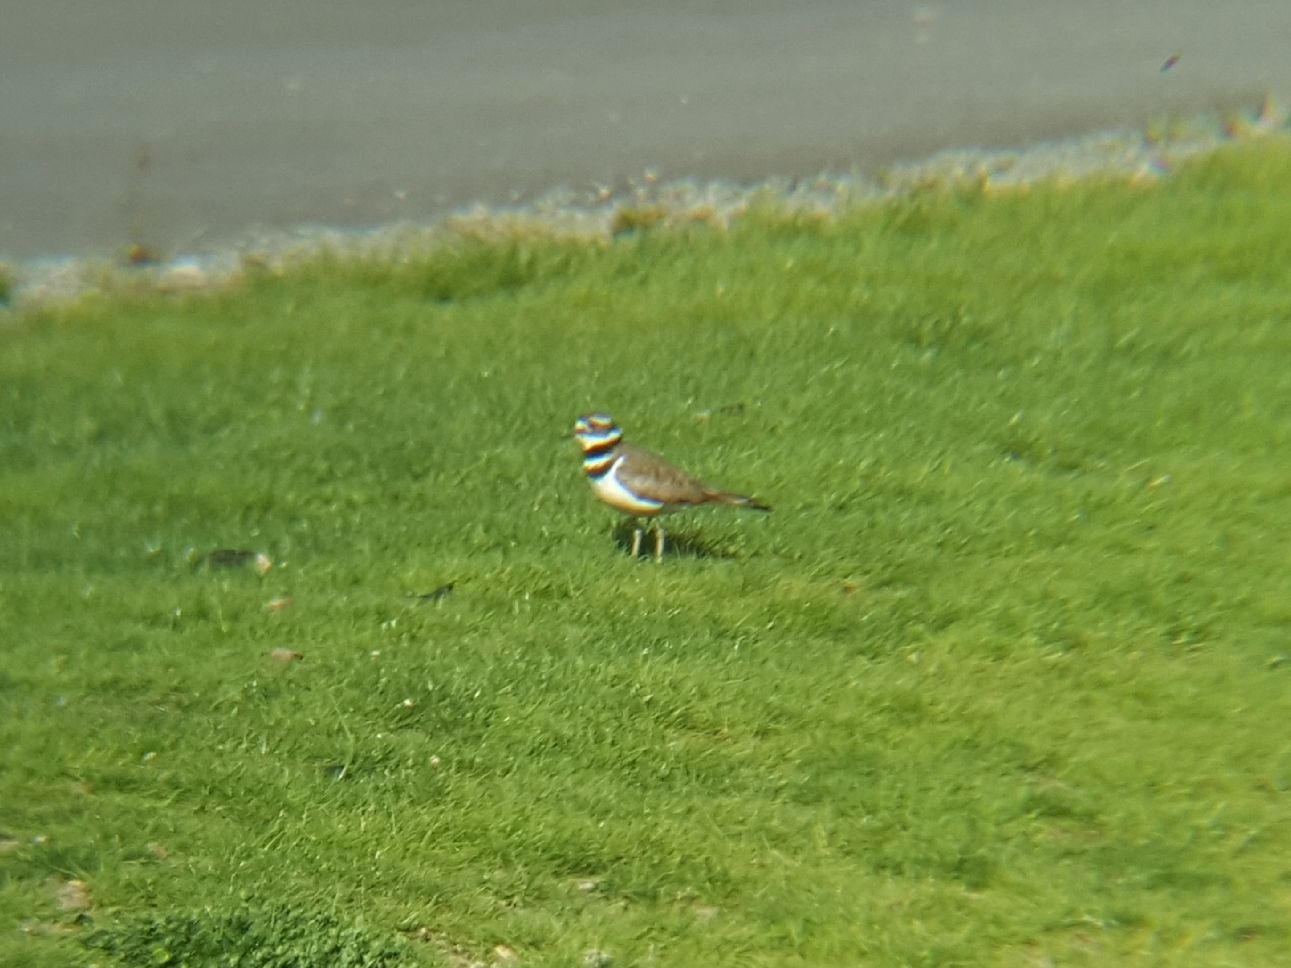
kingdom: Animalia
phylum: Chordata
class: Aves
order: Charadriiformes
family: Charadriidae
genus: Charadrius
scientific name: Charadrius vociferus
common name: Killdeer
